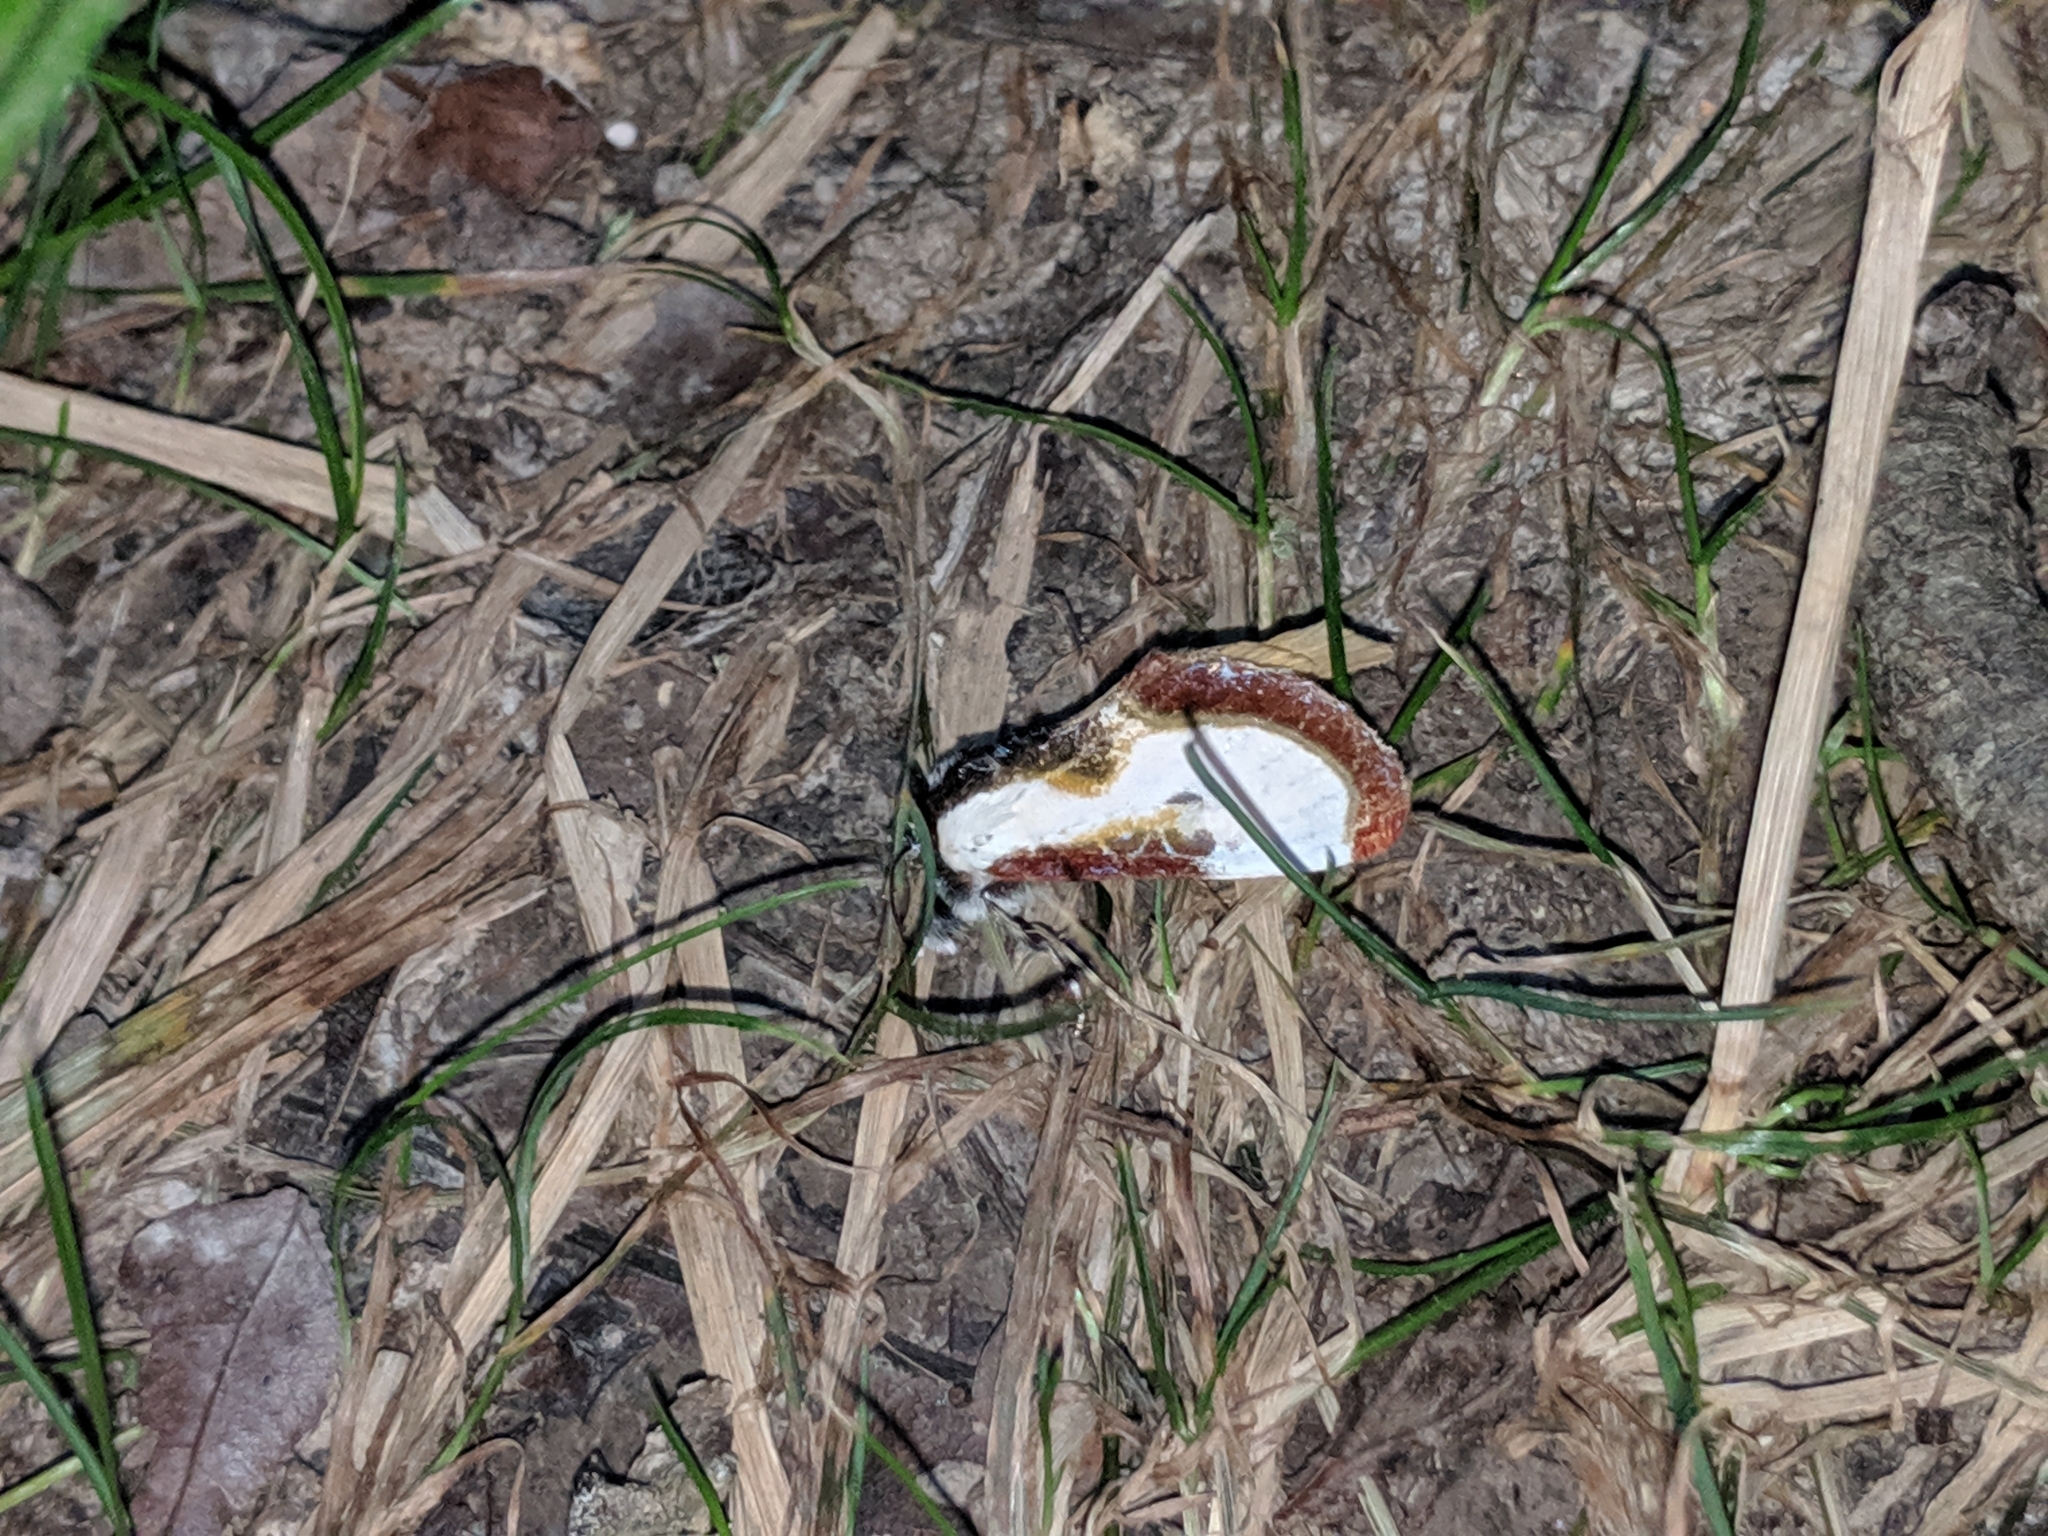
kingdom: Animalia
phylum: Arthropoda
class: Insecta
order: Lepidoptera
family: Noctuidae
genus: Eudryas
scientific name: Eudryas grata
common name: Beautiful wood-nymph
